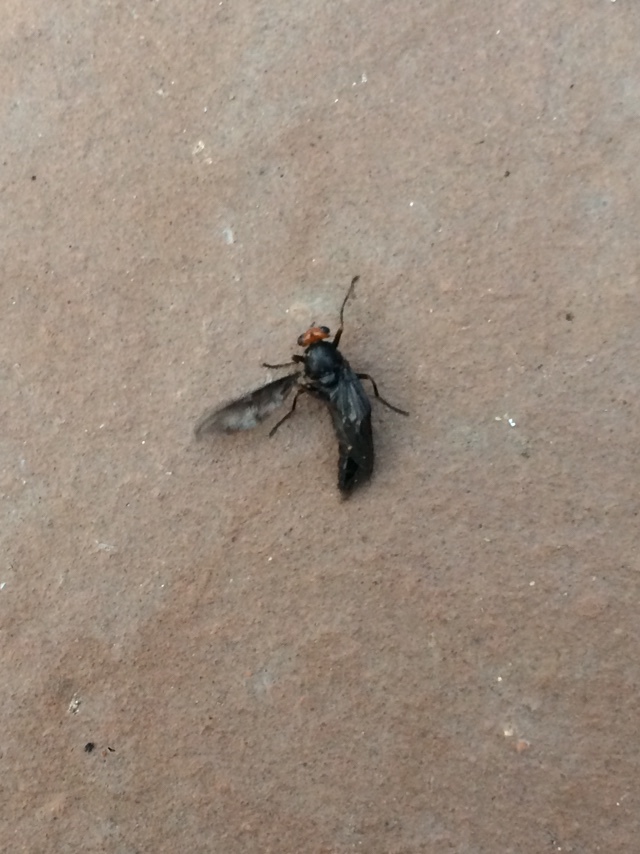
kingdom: Animalia
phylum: Arthropoda
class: Insecta
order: Diptera
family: Stratiomyidae
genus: Inopus
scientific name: Inopus rubriceps
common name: Soldier fly
